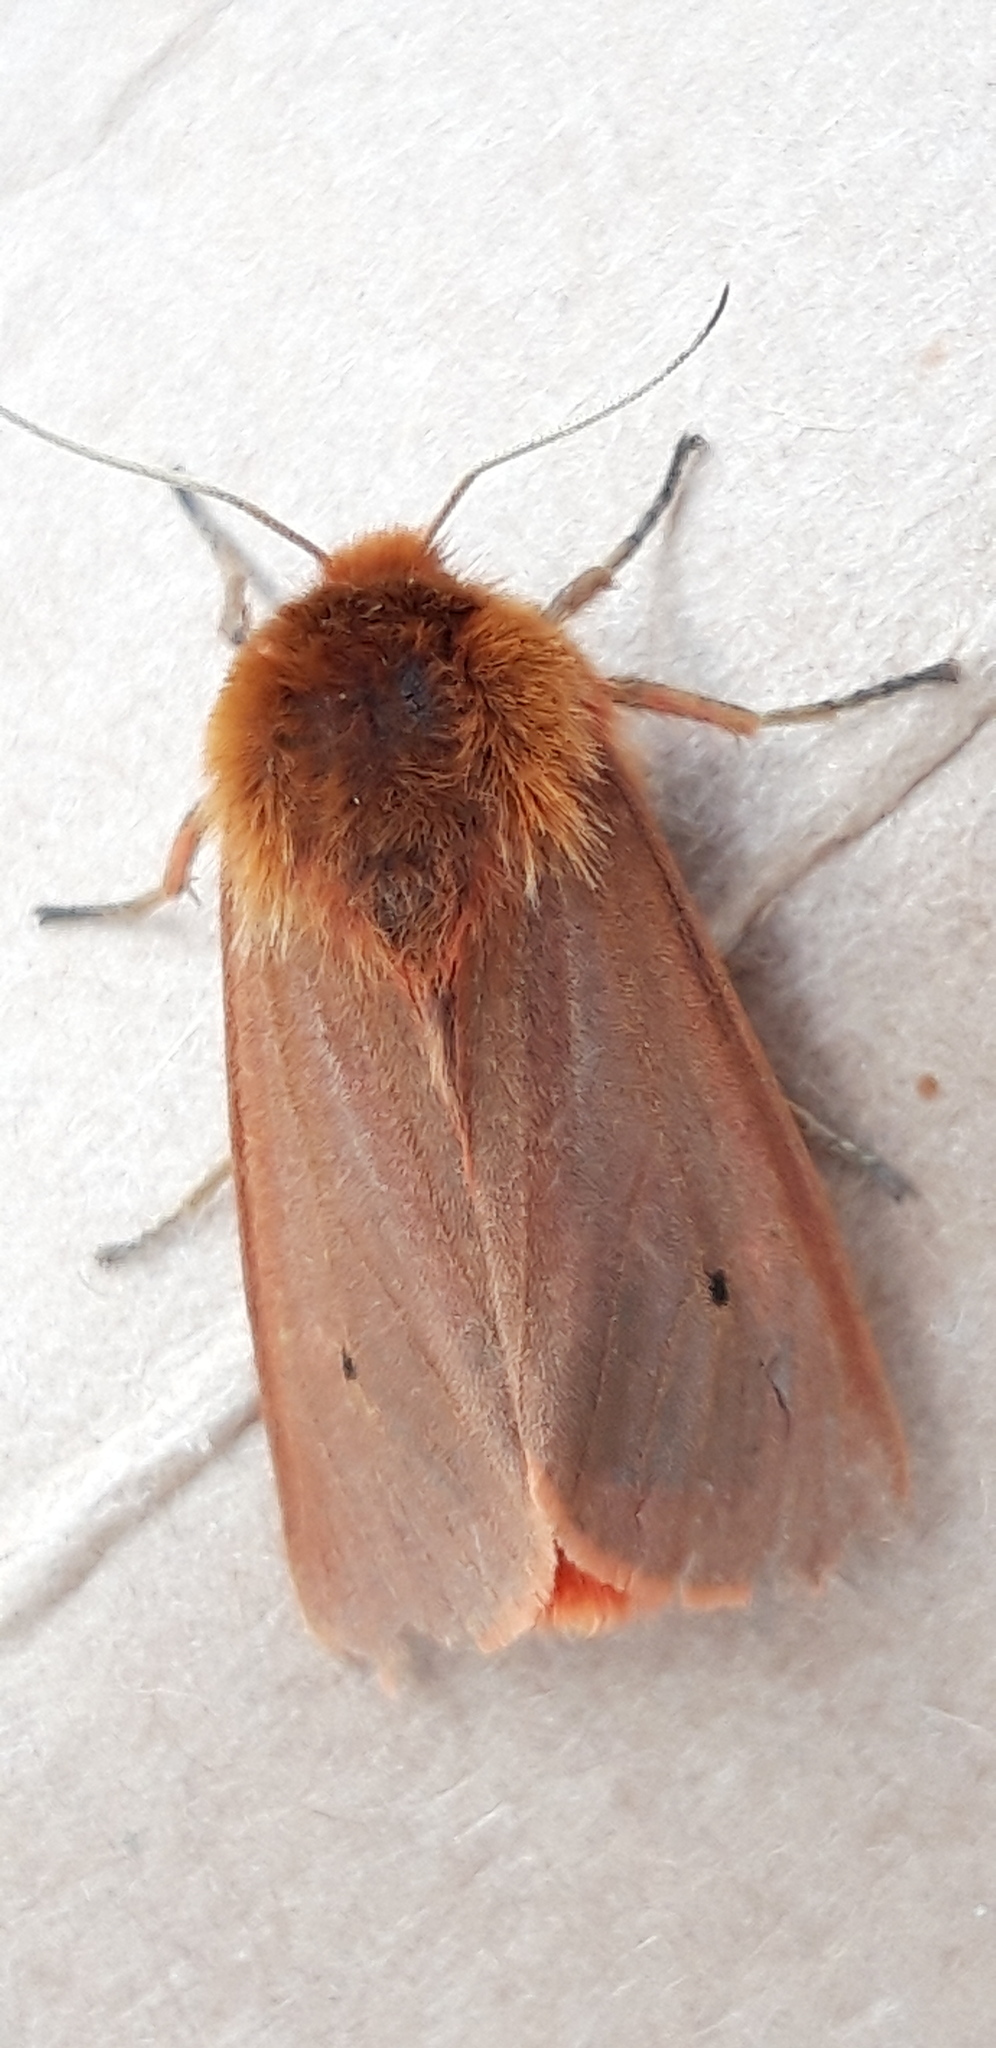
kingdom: Animalia
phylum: Arthropoda
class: Insecta
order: Lepidoptera
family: Erebidae
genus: Phragmatobia
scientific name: Phragmatobia fuliginosa
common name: Ruby tiger
